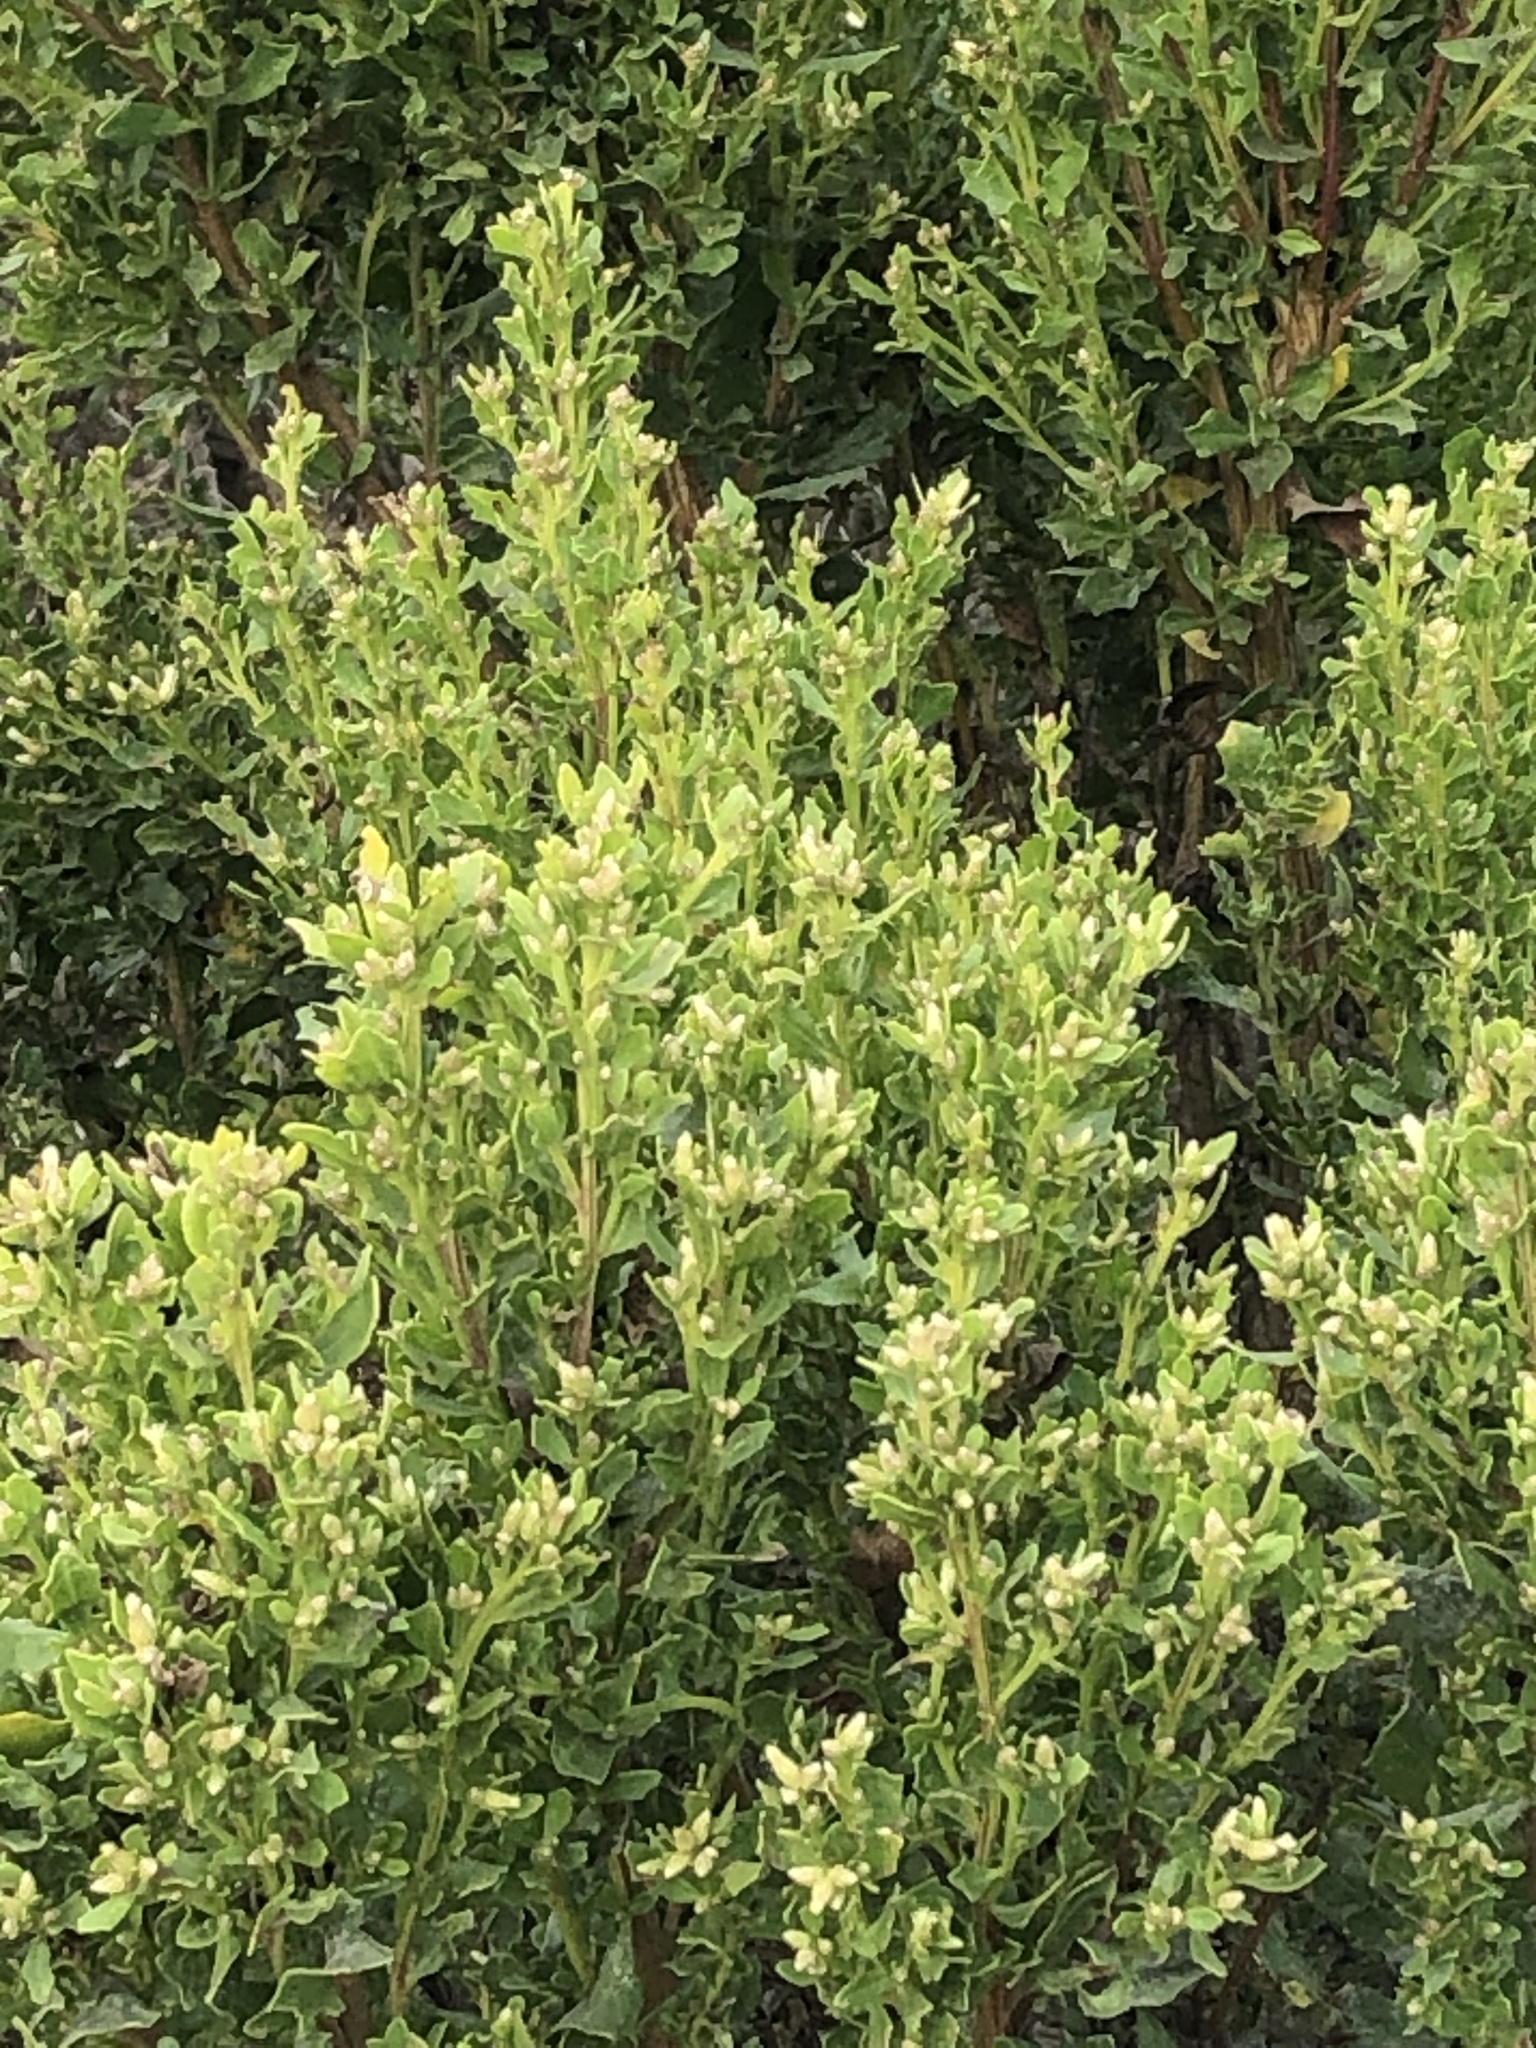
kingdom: Plantae
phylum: Tracheophyta
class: Magnoliopsida
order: Asterales
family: Asteraceae
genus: Baccharis
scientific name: Baccharis pilularis
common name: Coyotebrush
